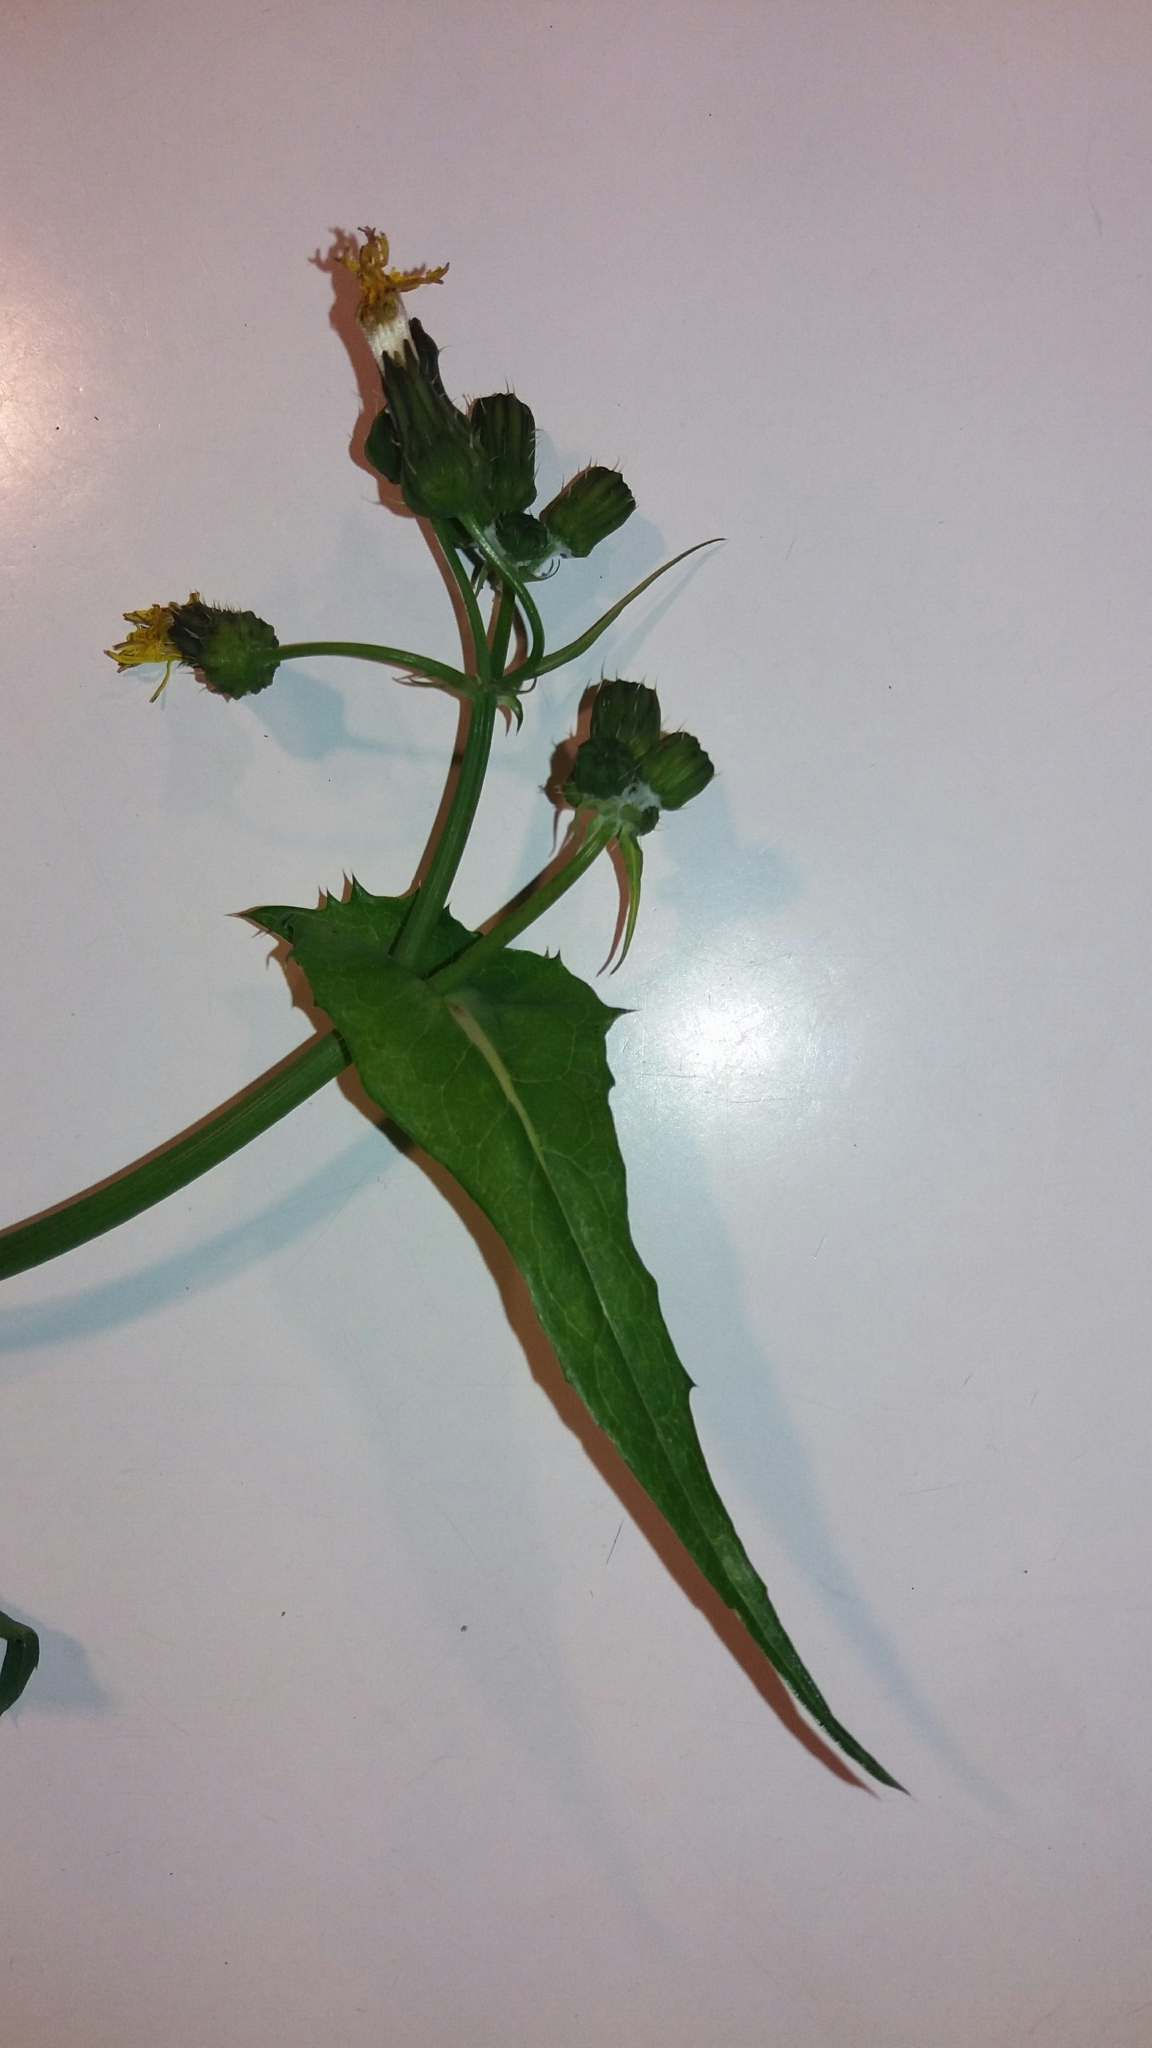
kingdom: Plantae
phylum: Tracheophyta
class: Magnoliopsida
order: Asterales
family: Asteraceae
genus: Sonchus
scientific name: Sonchus oleraceus
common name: Common sowthistle
